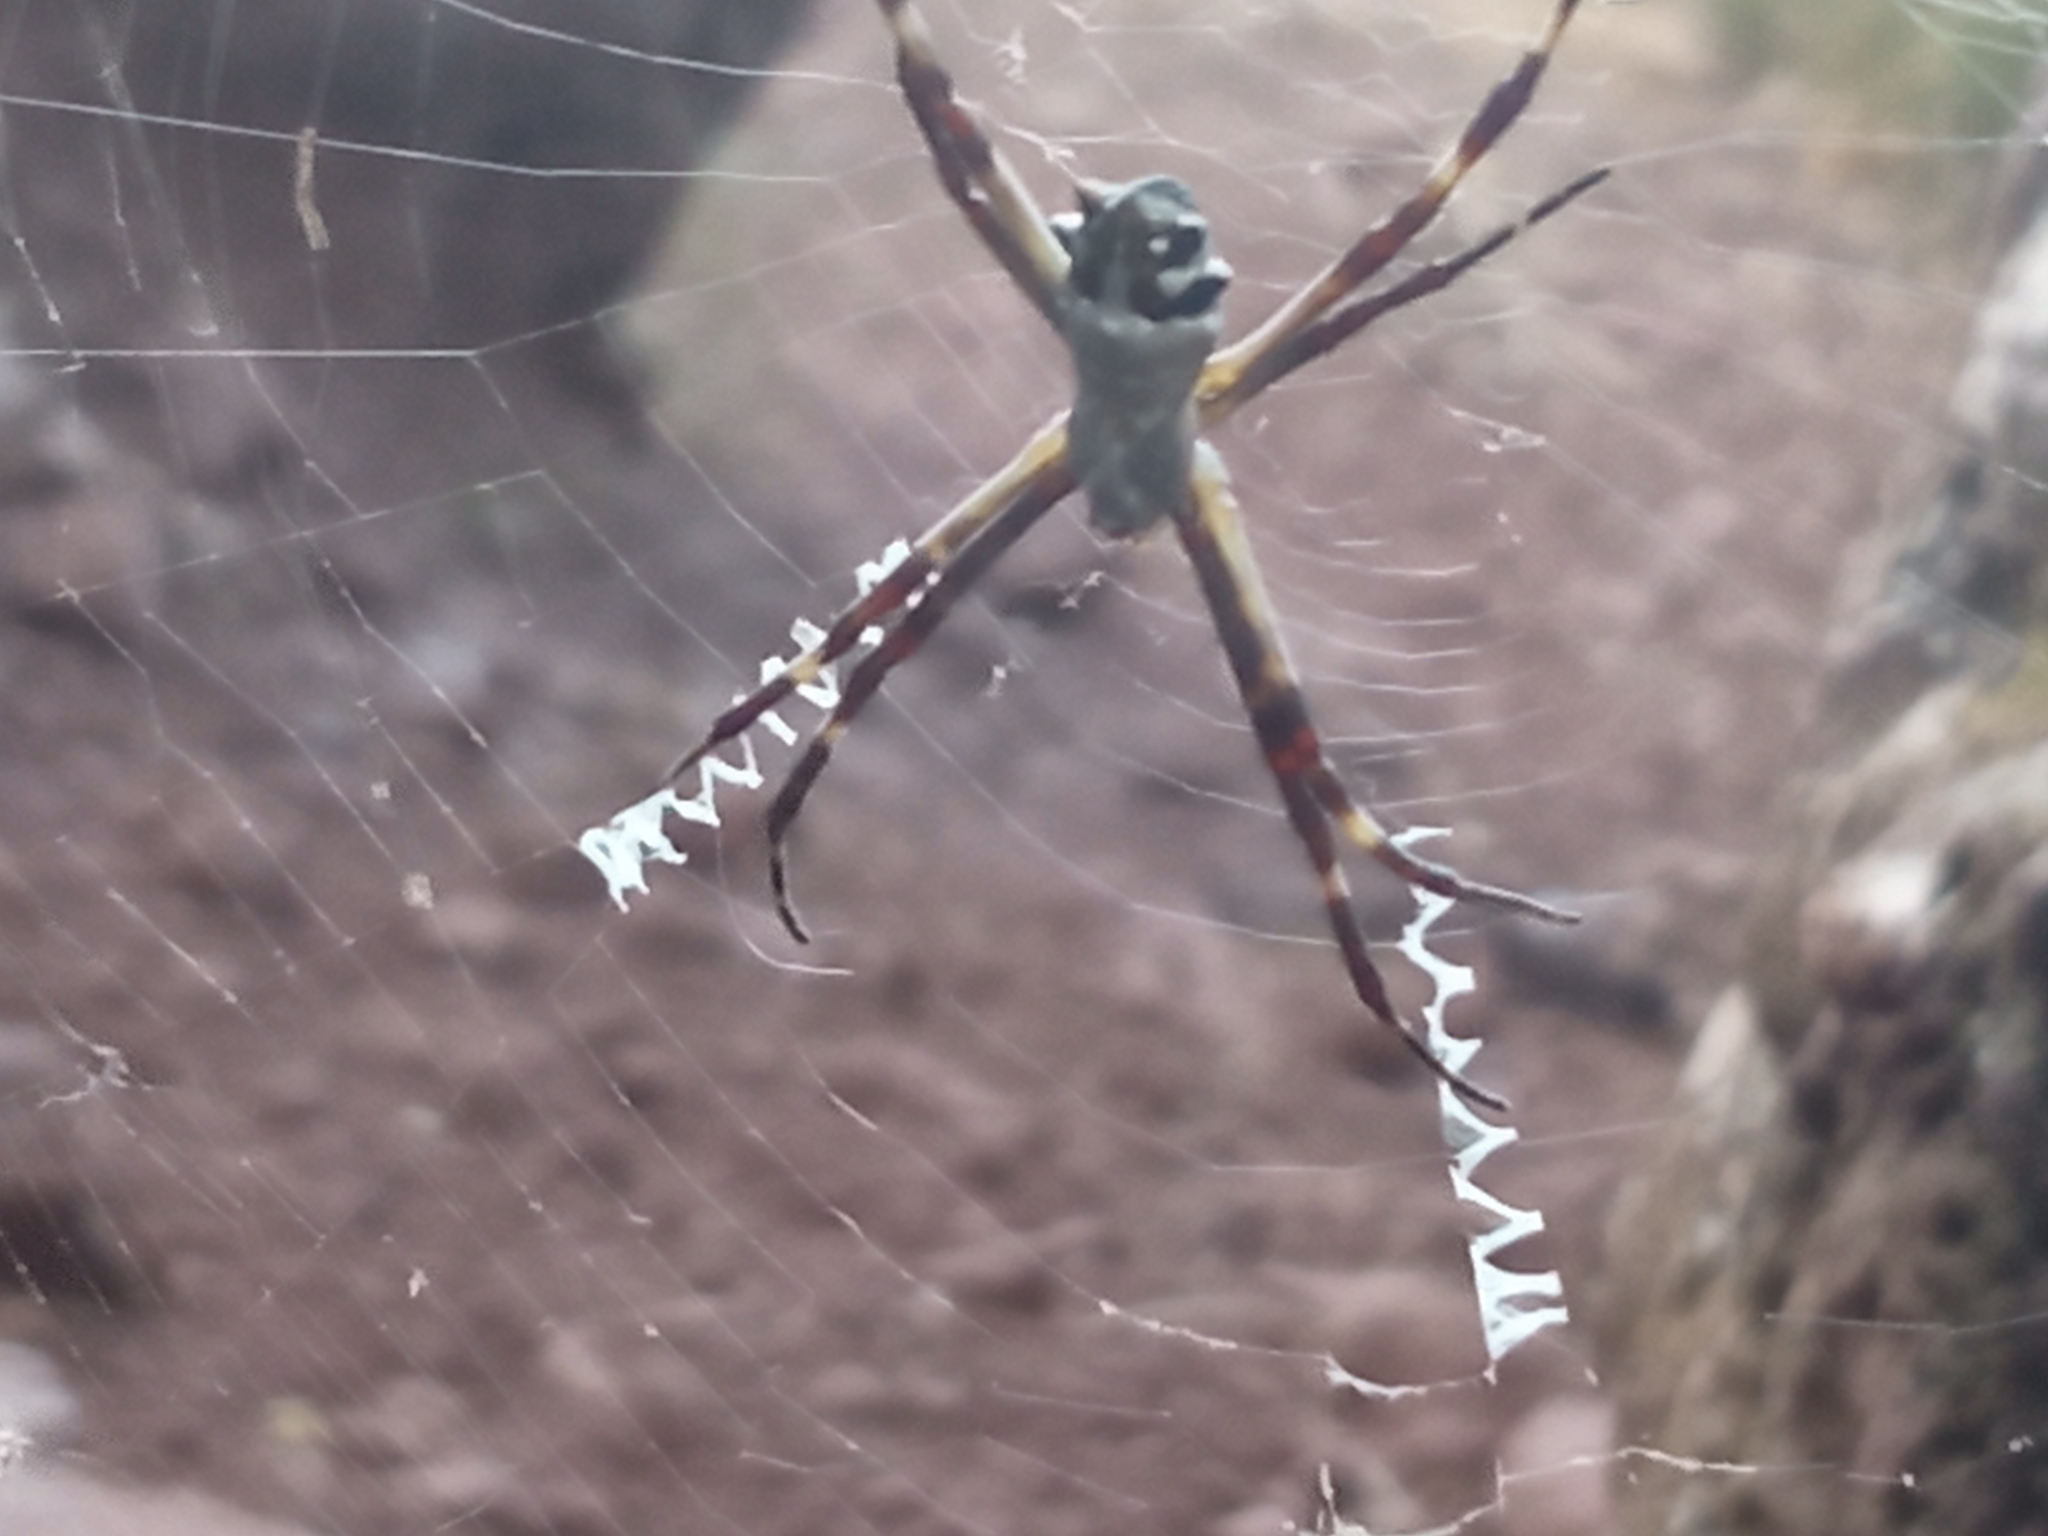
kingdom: Animalia
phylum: Arthropoda
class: Arachnida
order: Araneae
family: Araneidae
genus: Argiope
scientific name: Argiope argentata
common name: Orb weavers
